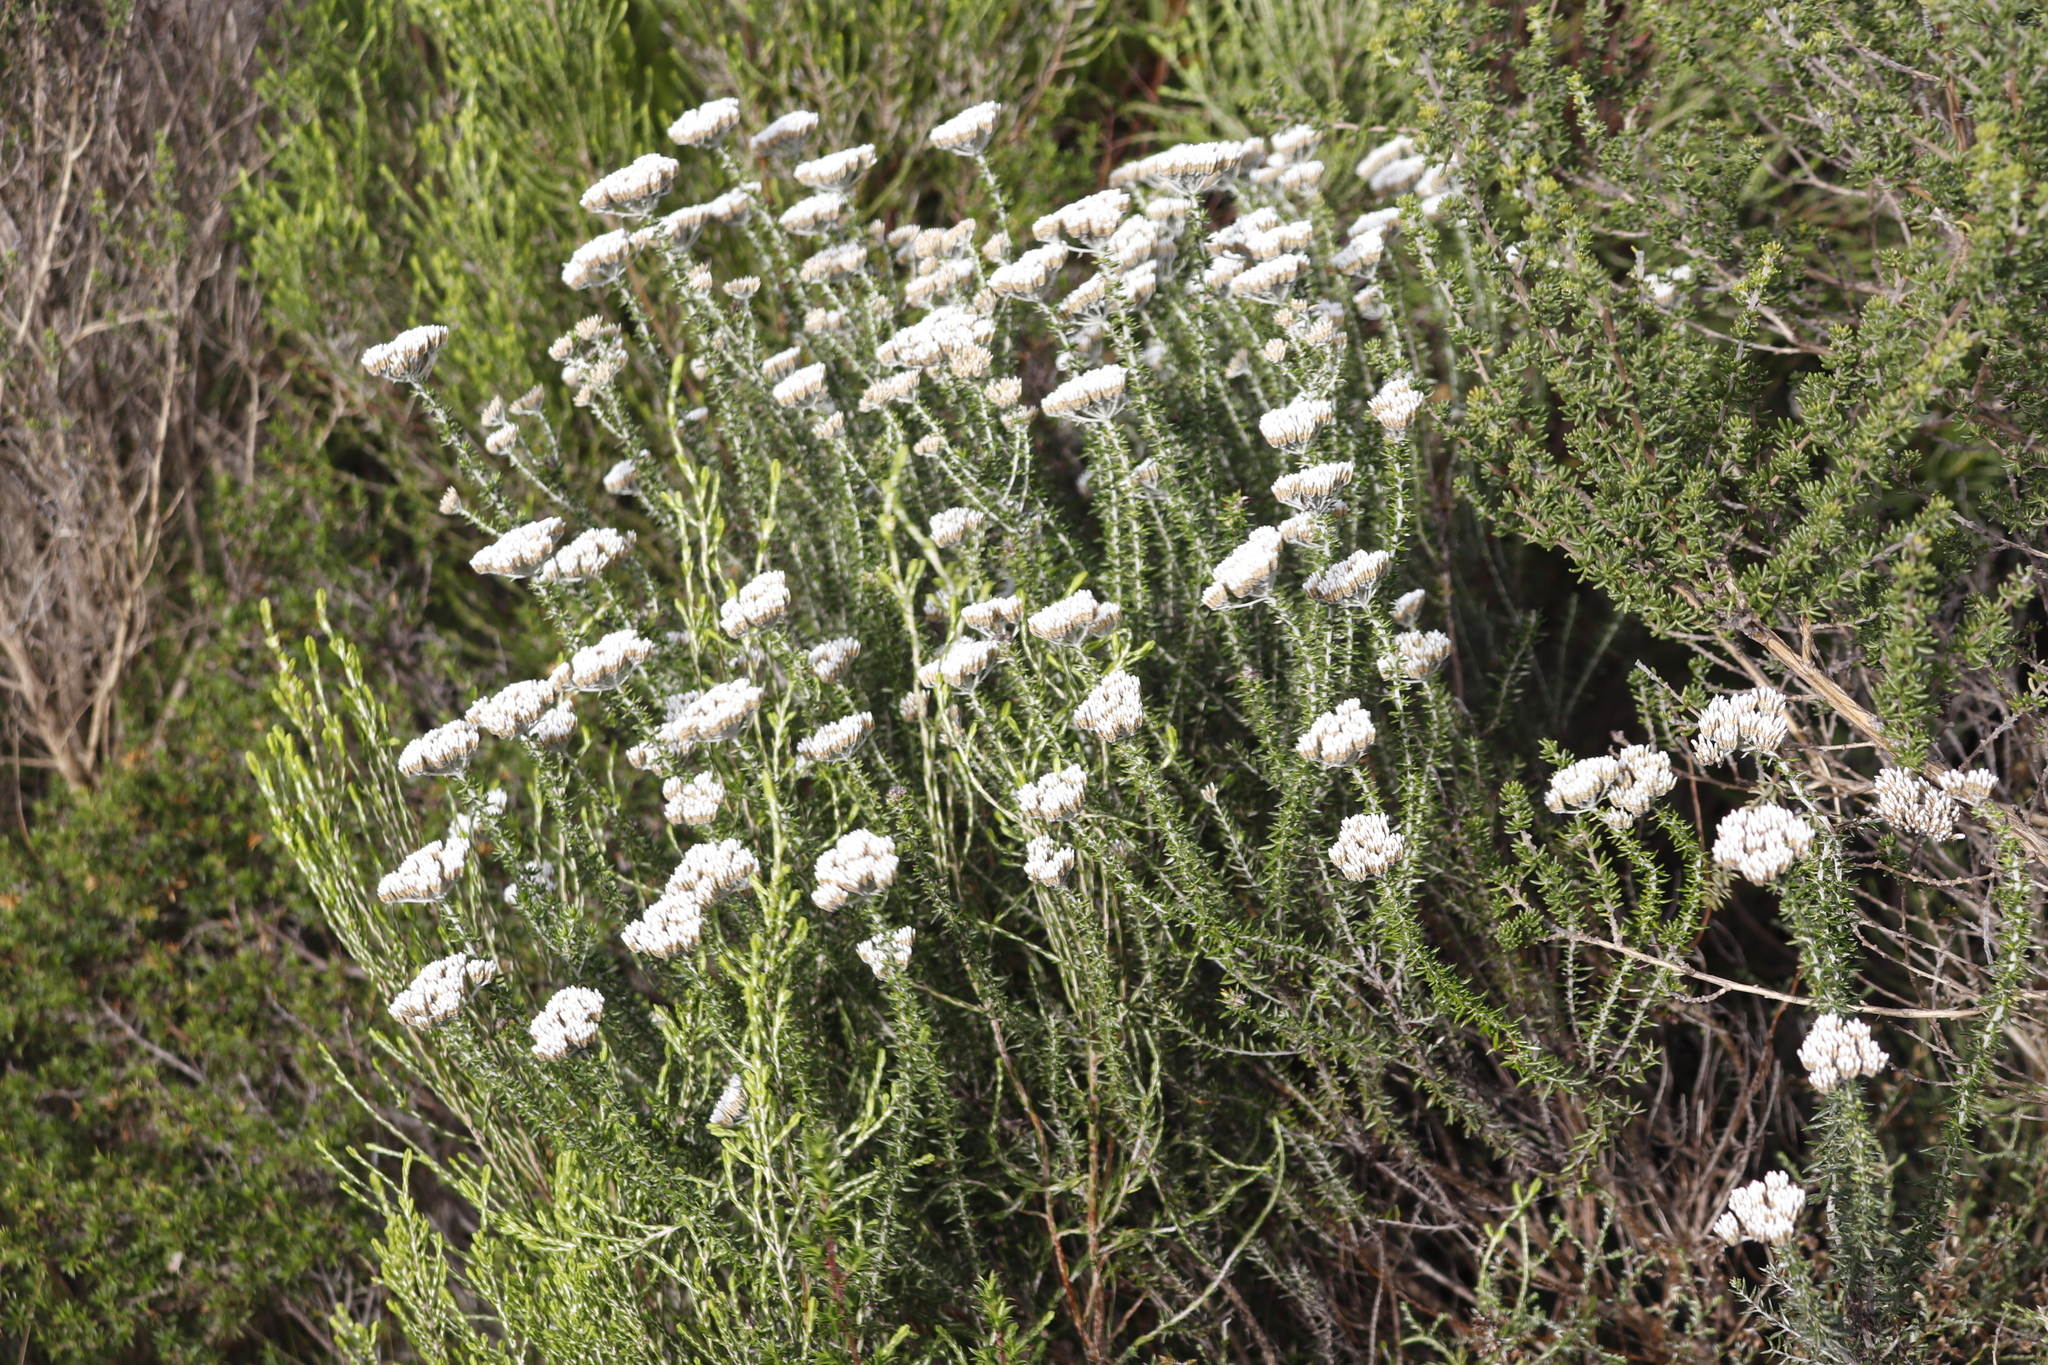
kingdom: Plantae
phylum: Tracheophyta
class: Magnoliopsida
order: Asterales
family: Asteraceae
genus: Metalasia
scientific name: Metalasia densa
